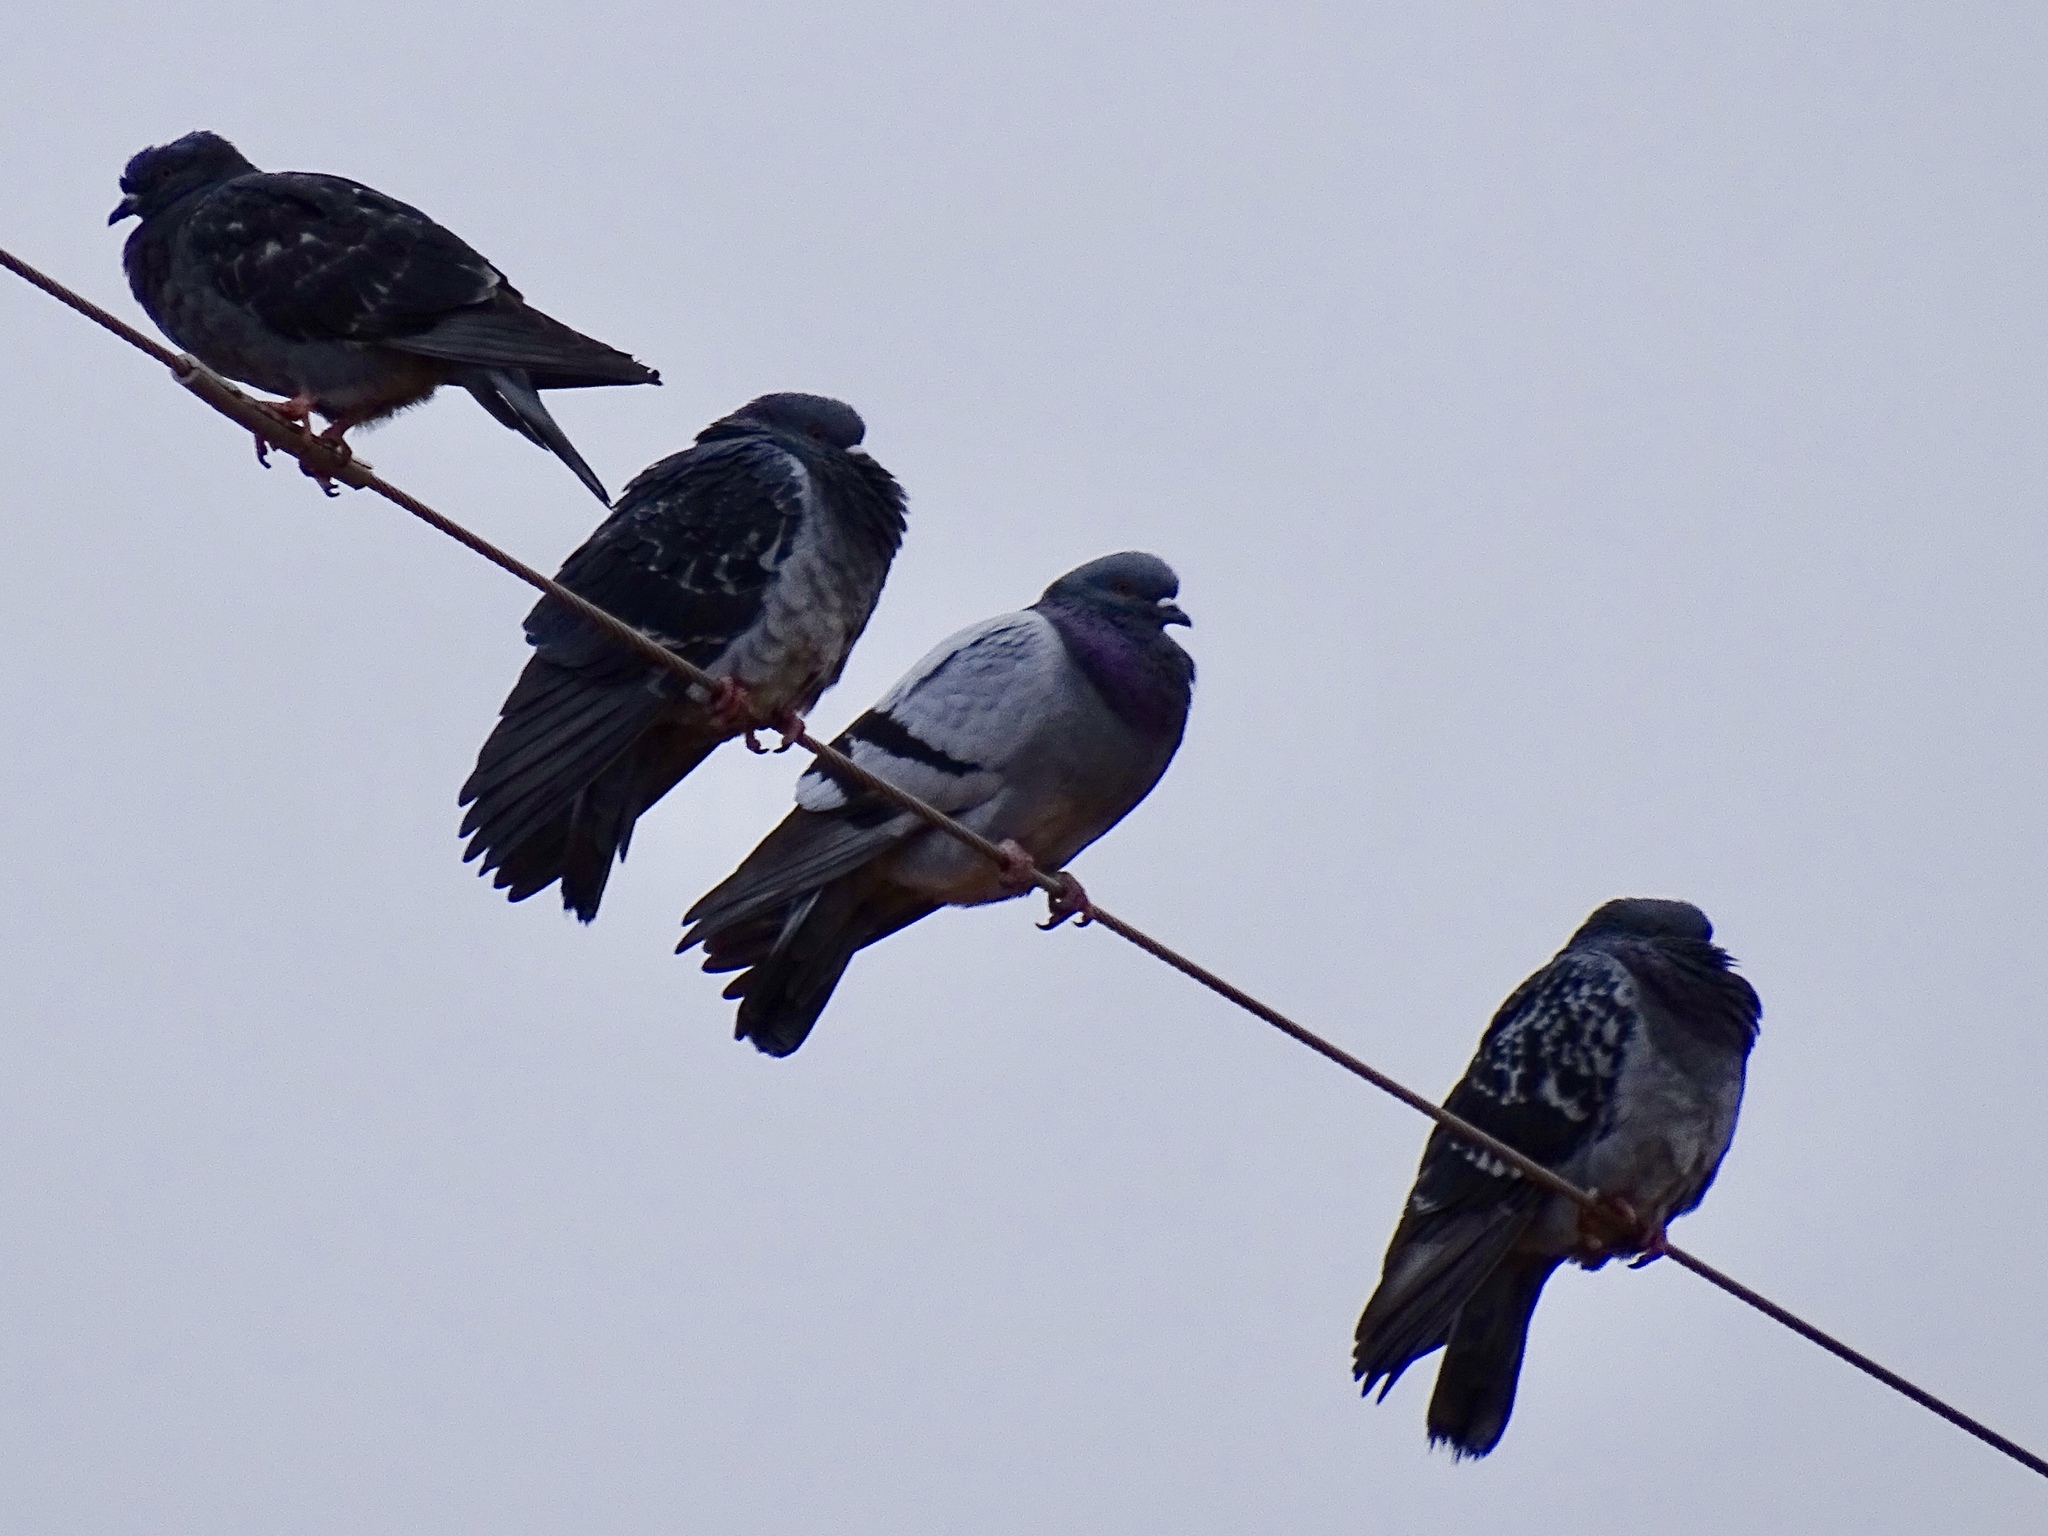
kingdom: Animalia
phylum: Chordata
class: Aves
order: Columbiformes
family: Columbidae
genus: Columba
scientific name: Columba livia
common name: Rock pigeon
